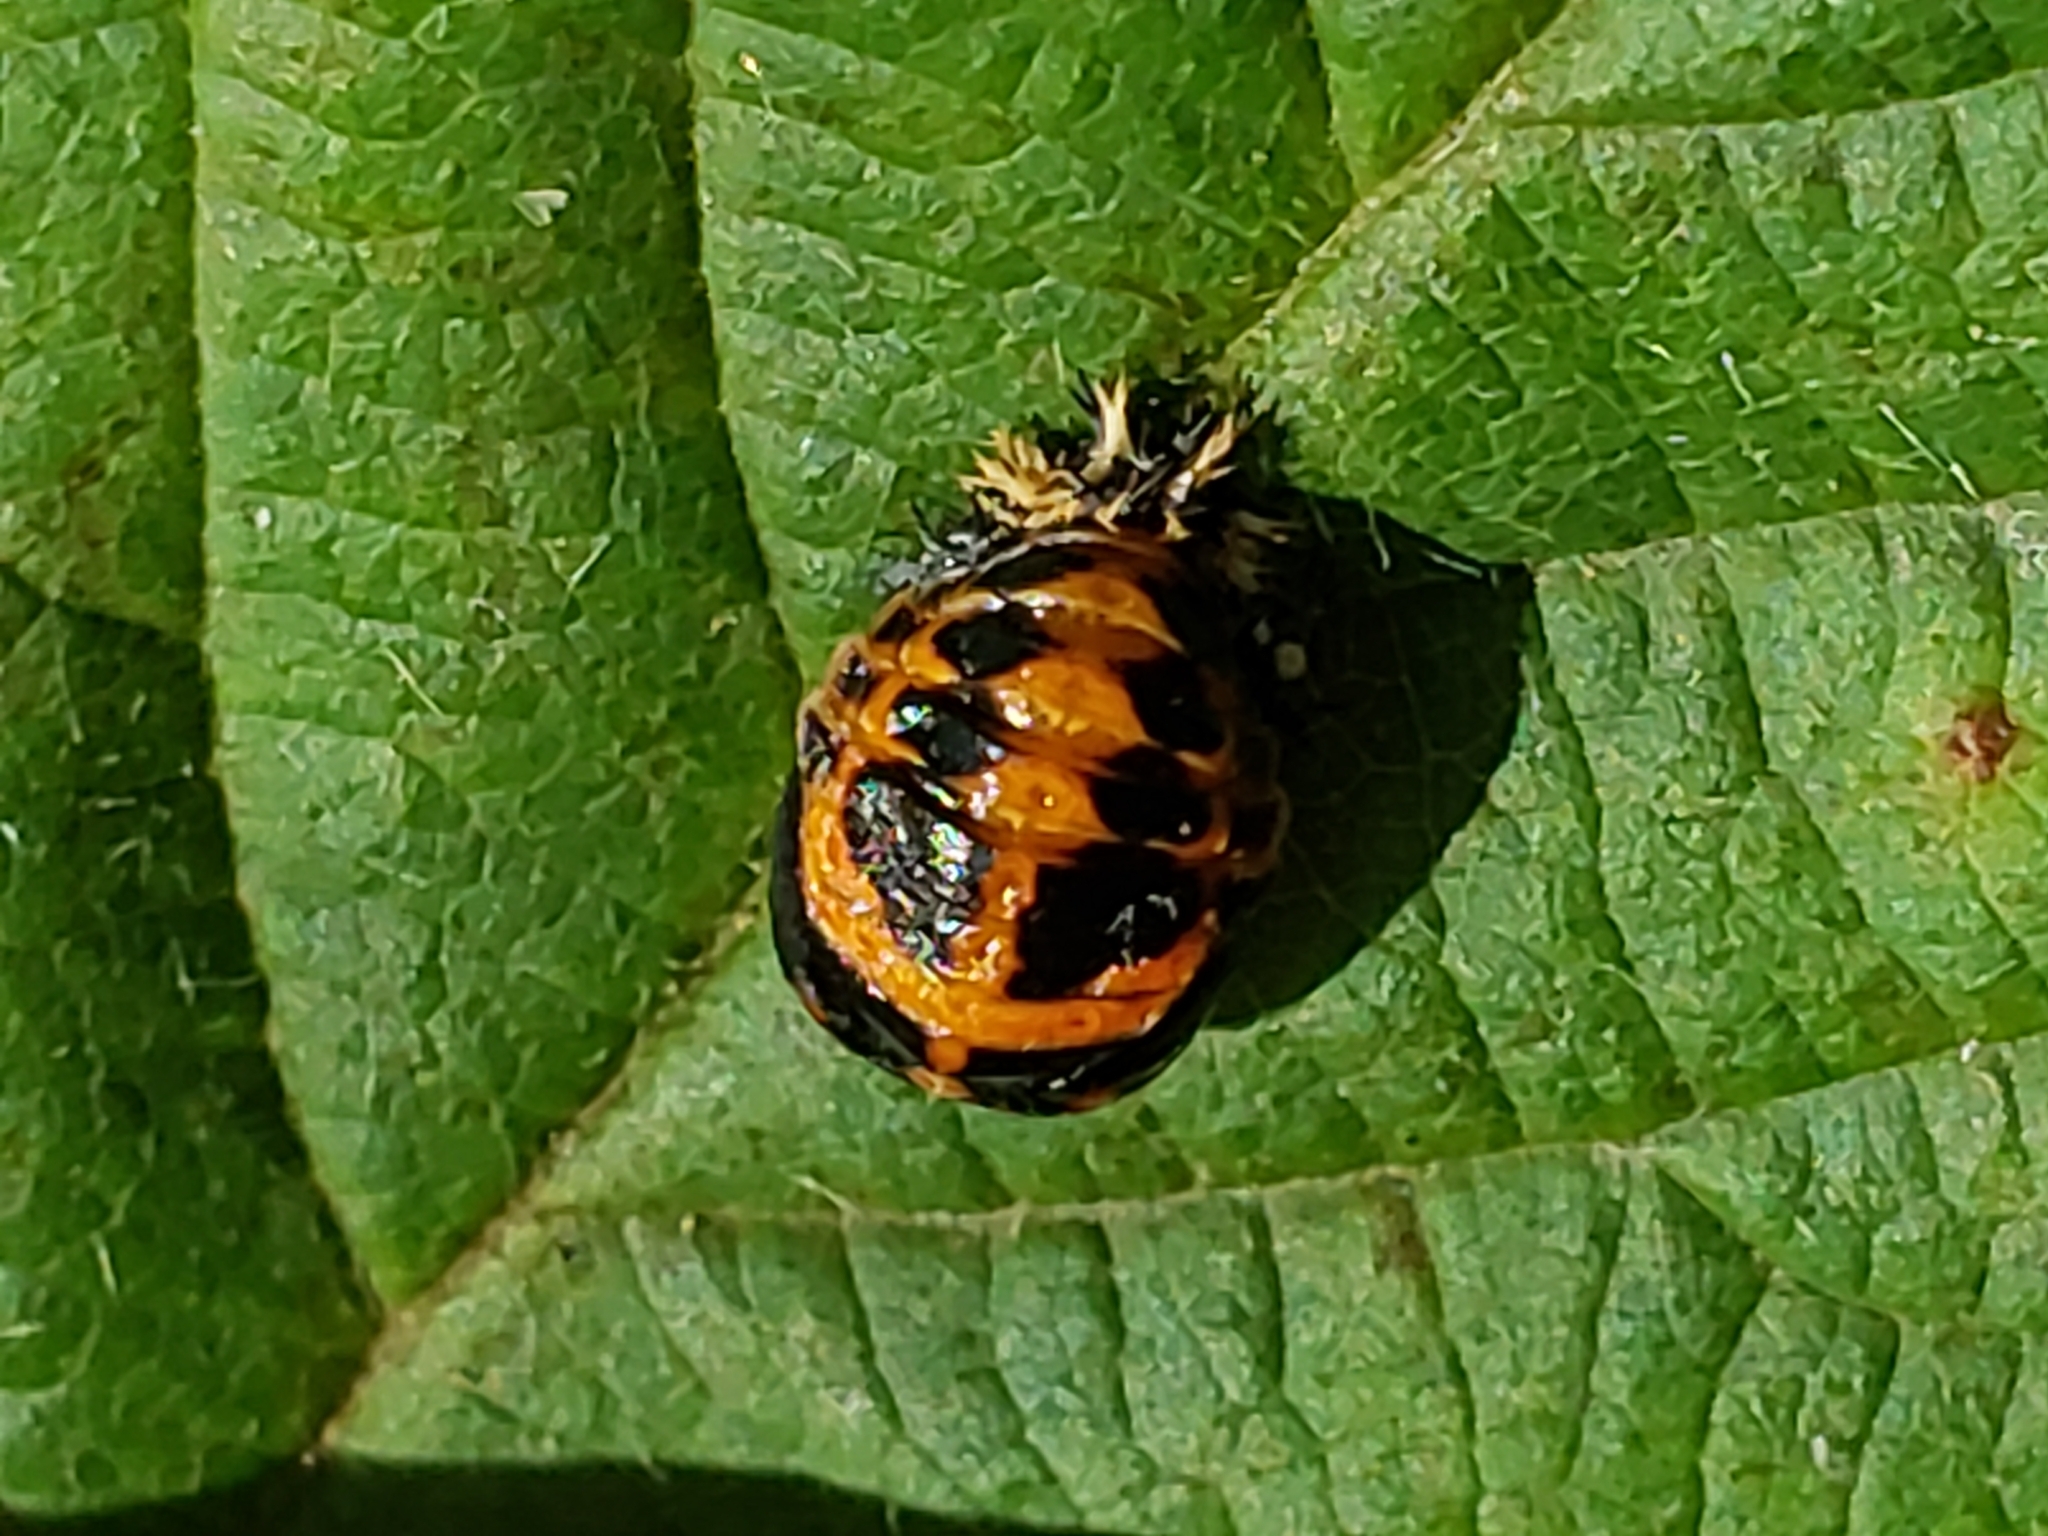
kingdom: Animalia
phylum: Arthropoda
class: Insecta
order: Coleoptera
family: Coccinellidae
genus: Harmonia
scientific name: Harmonia axyridis
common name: Harlequin ladybird
